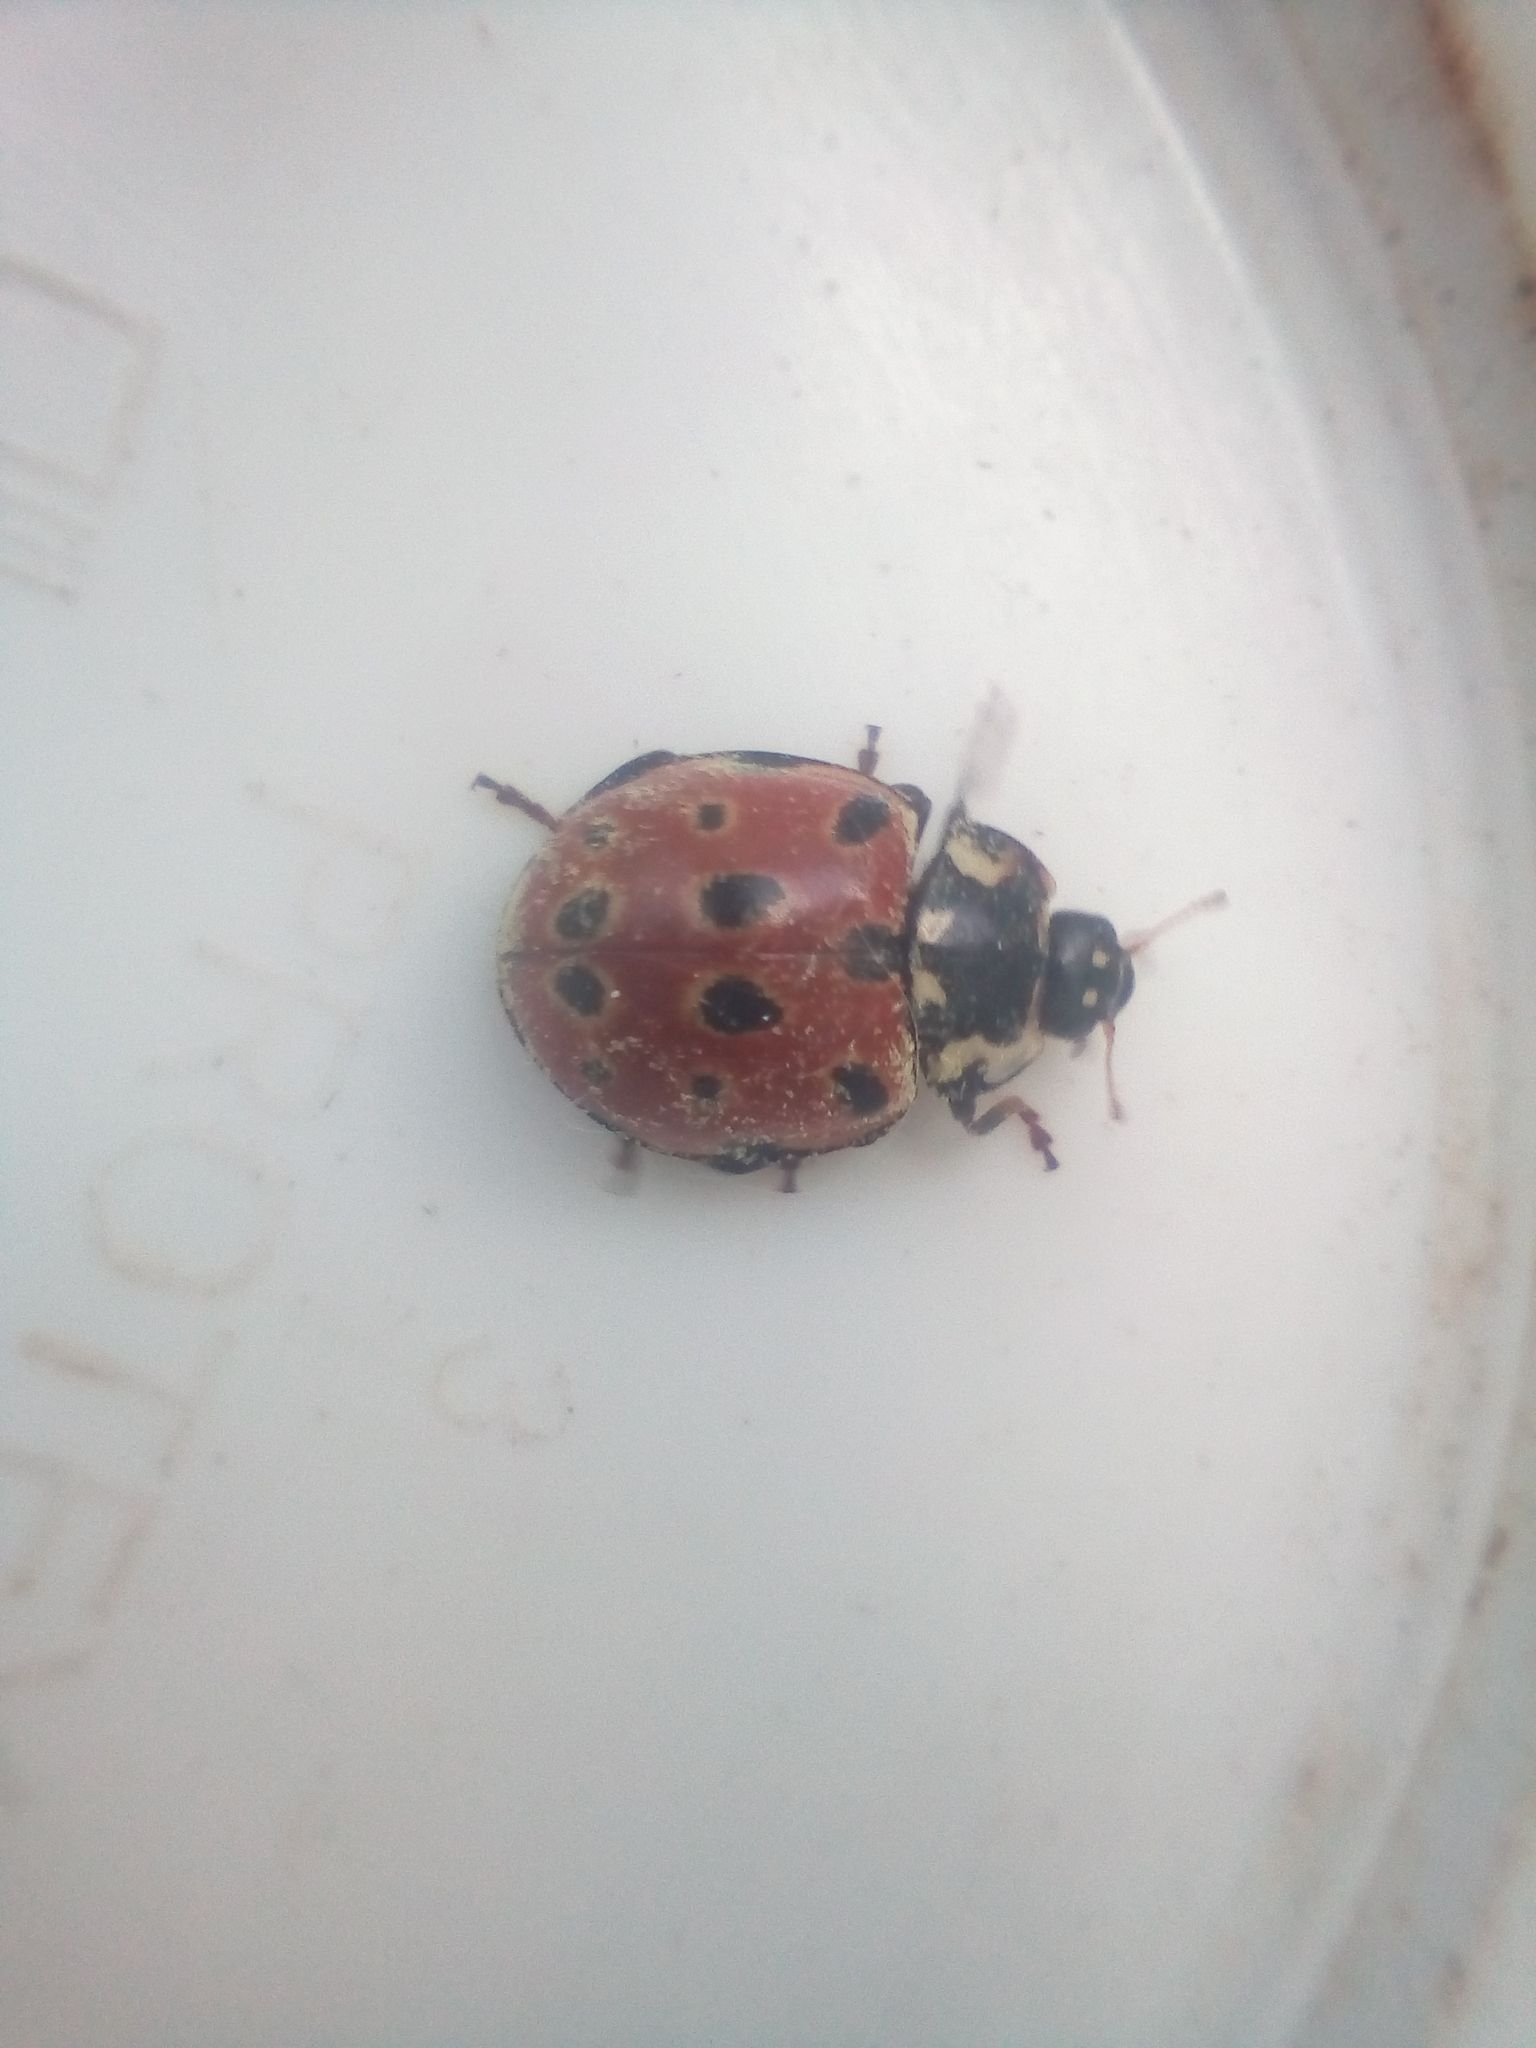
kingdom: Animalia
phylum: Arthropoda
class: Insecta
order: Coleoptera
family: Coccinellidae
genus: Anatis
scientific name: Anatis ocellata
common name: Eyed ladybird
